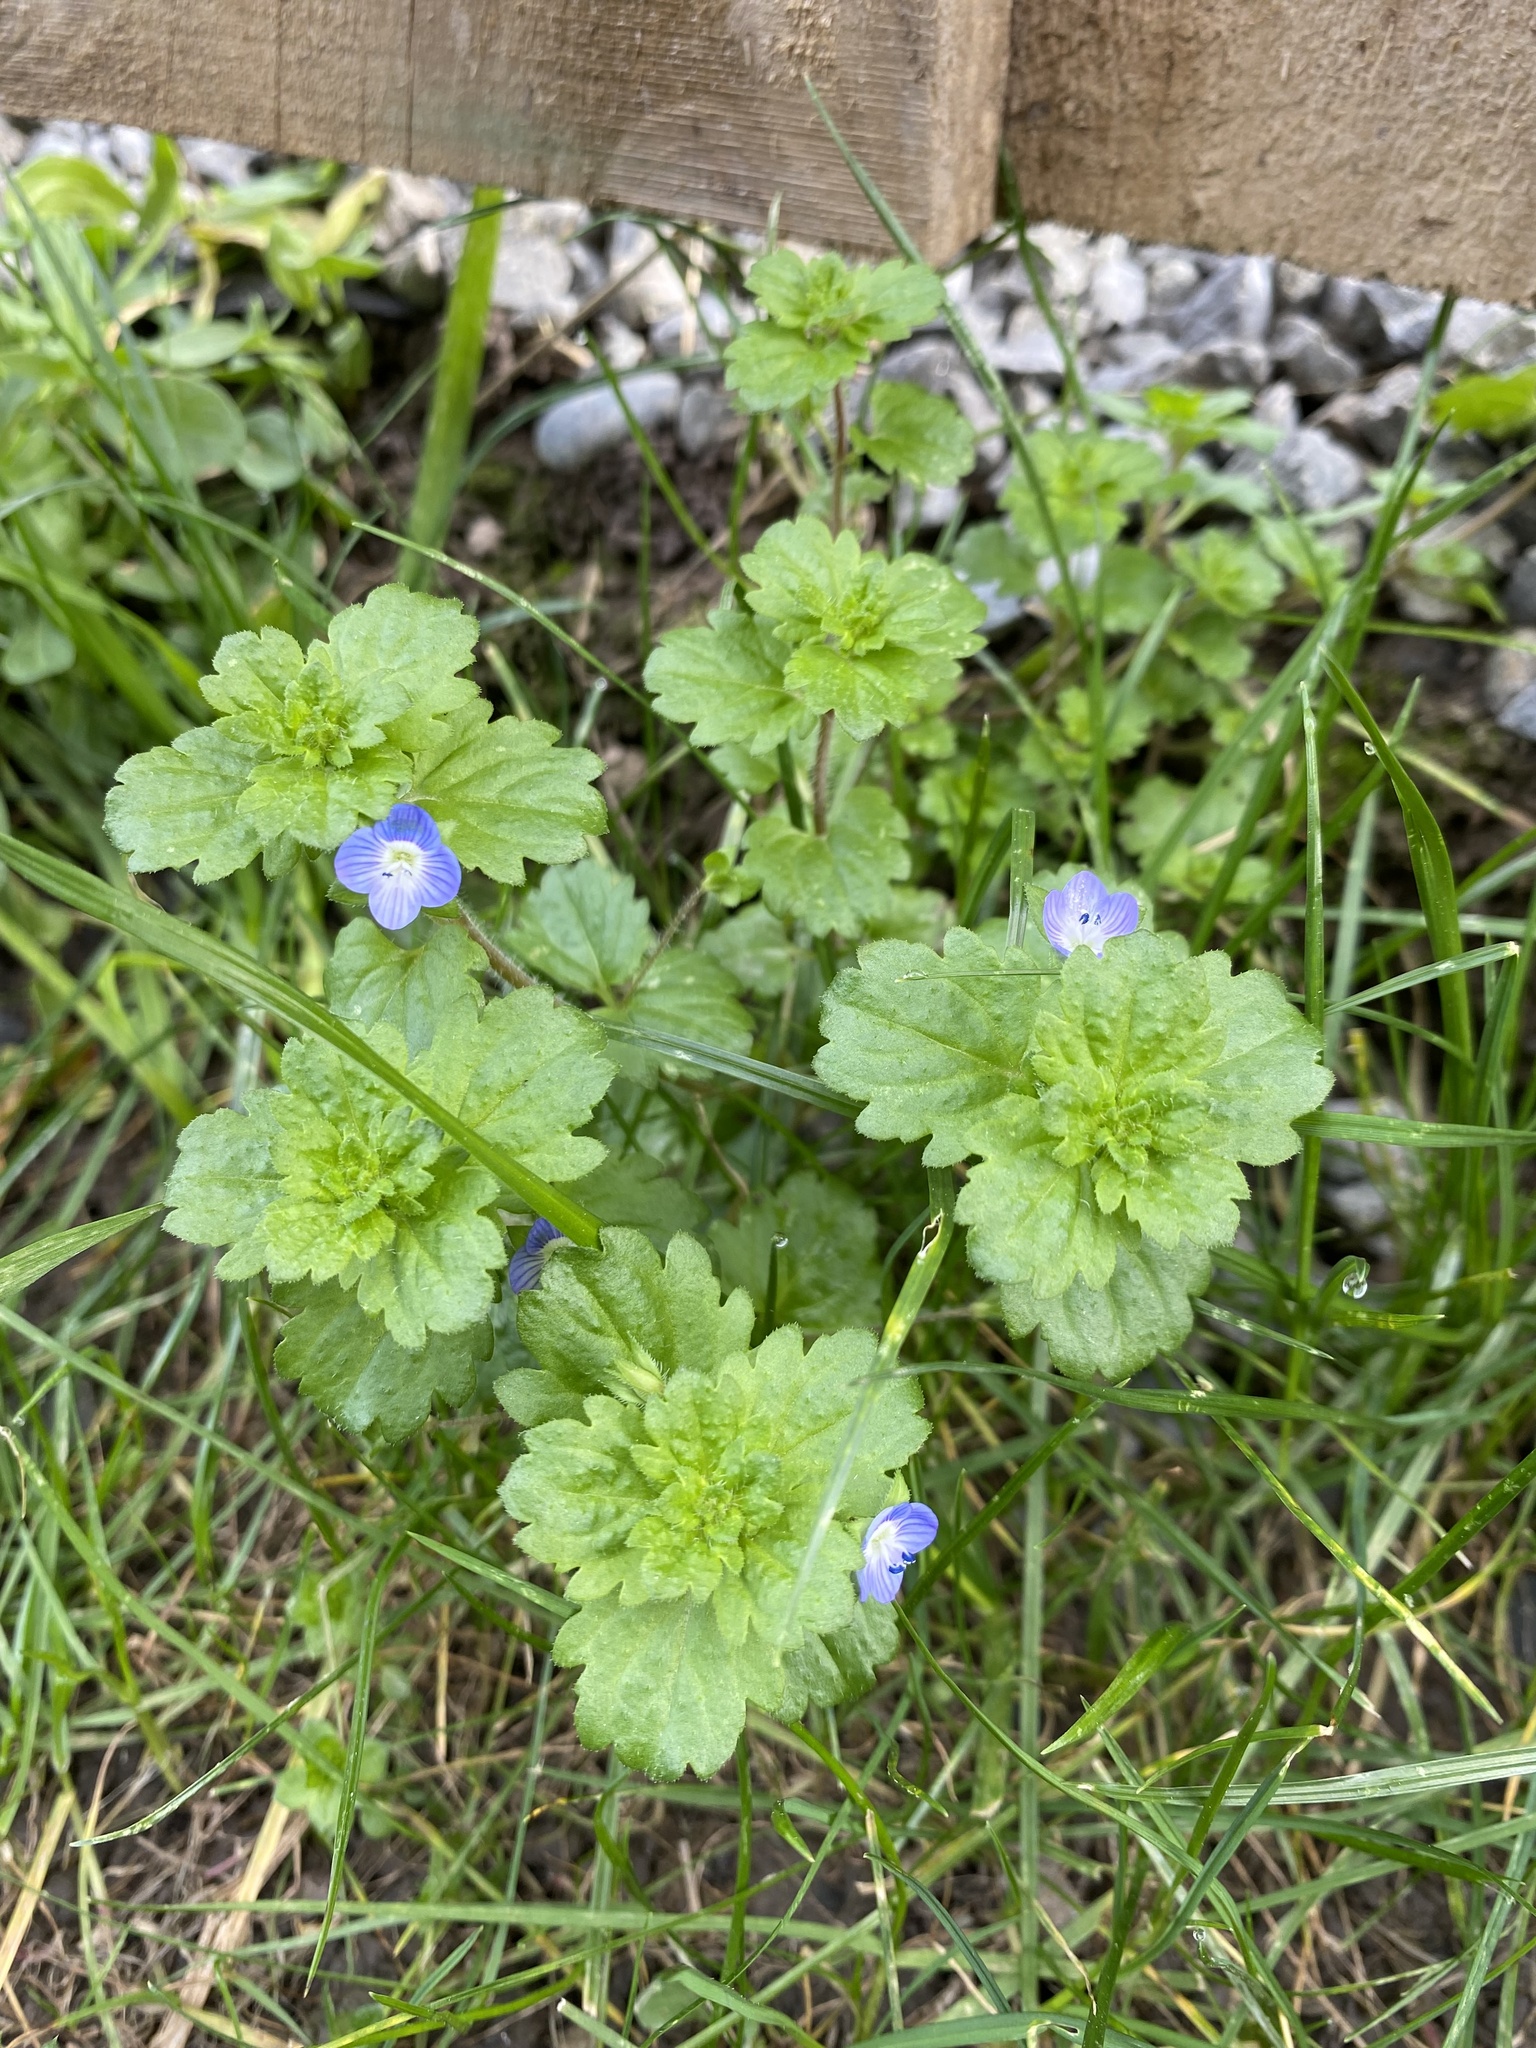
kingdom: Plantae
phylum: Tracheophyta
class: Magnoliopsida
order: Lamiales
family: Plantaginaceae
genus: Veronica
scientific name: Veronica persica
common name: Common field-speedwell
